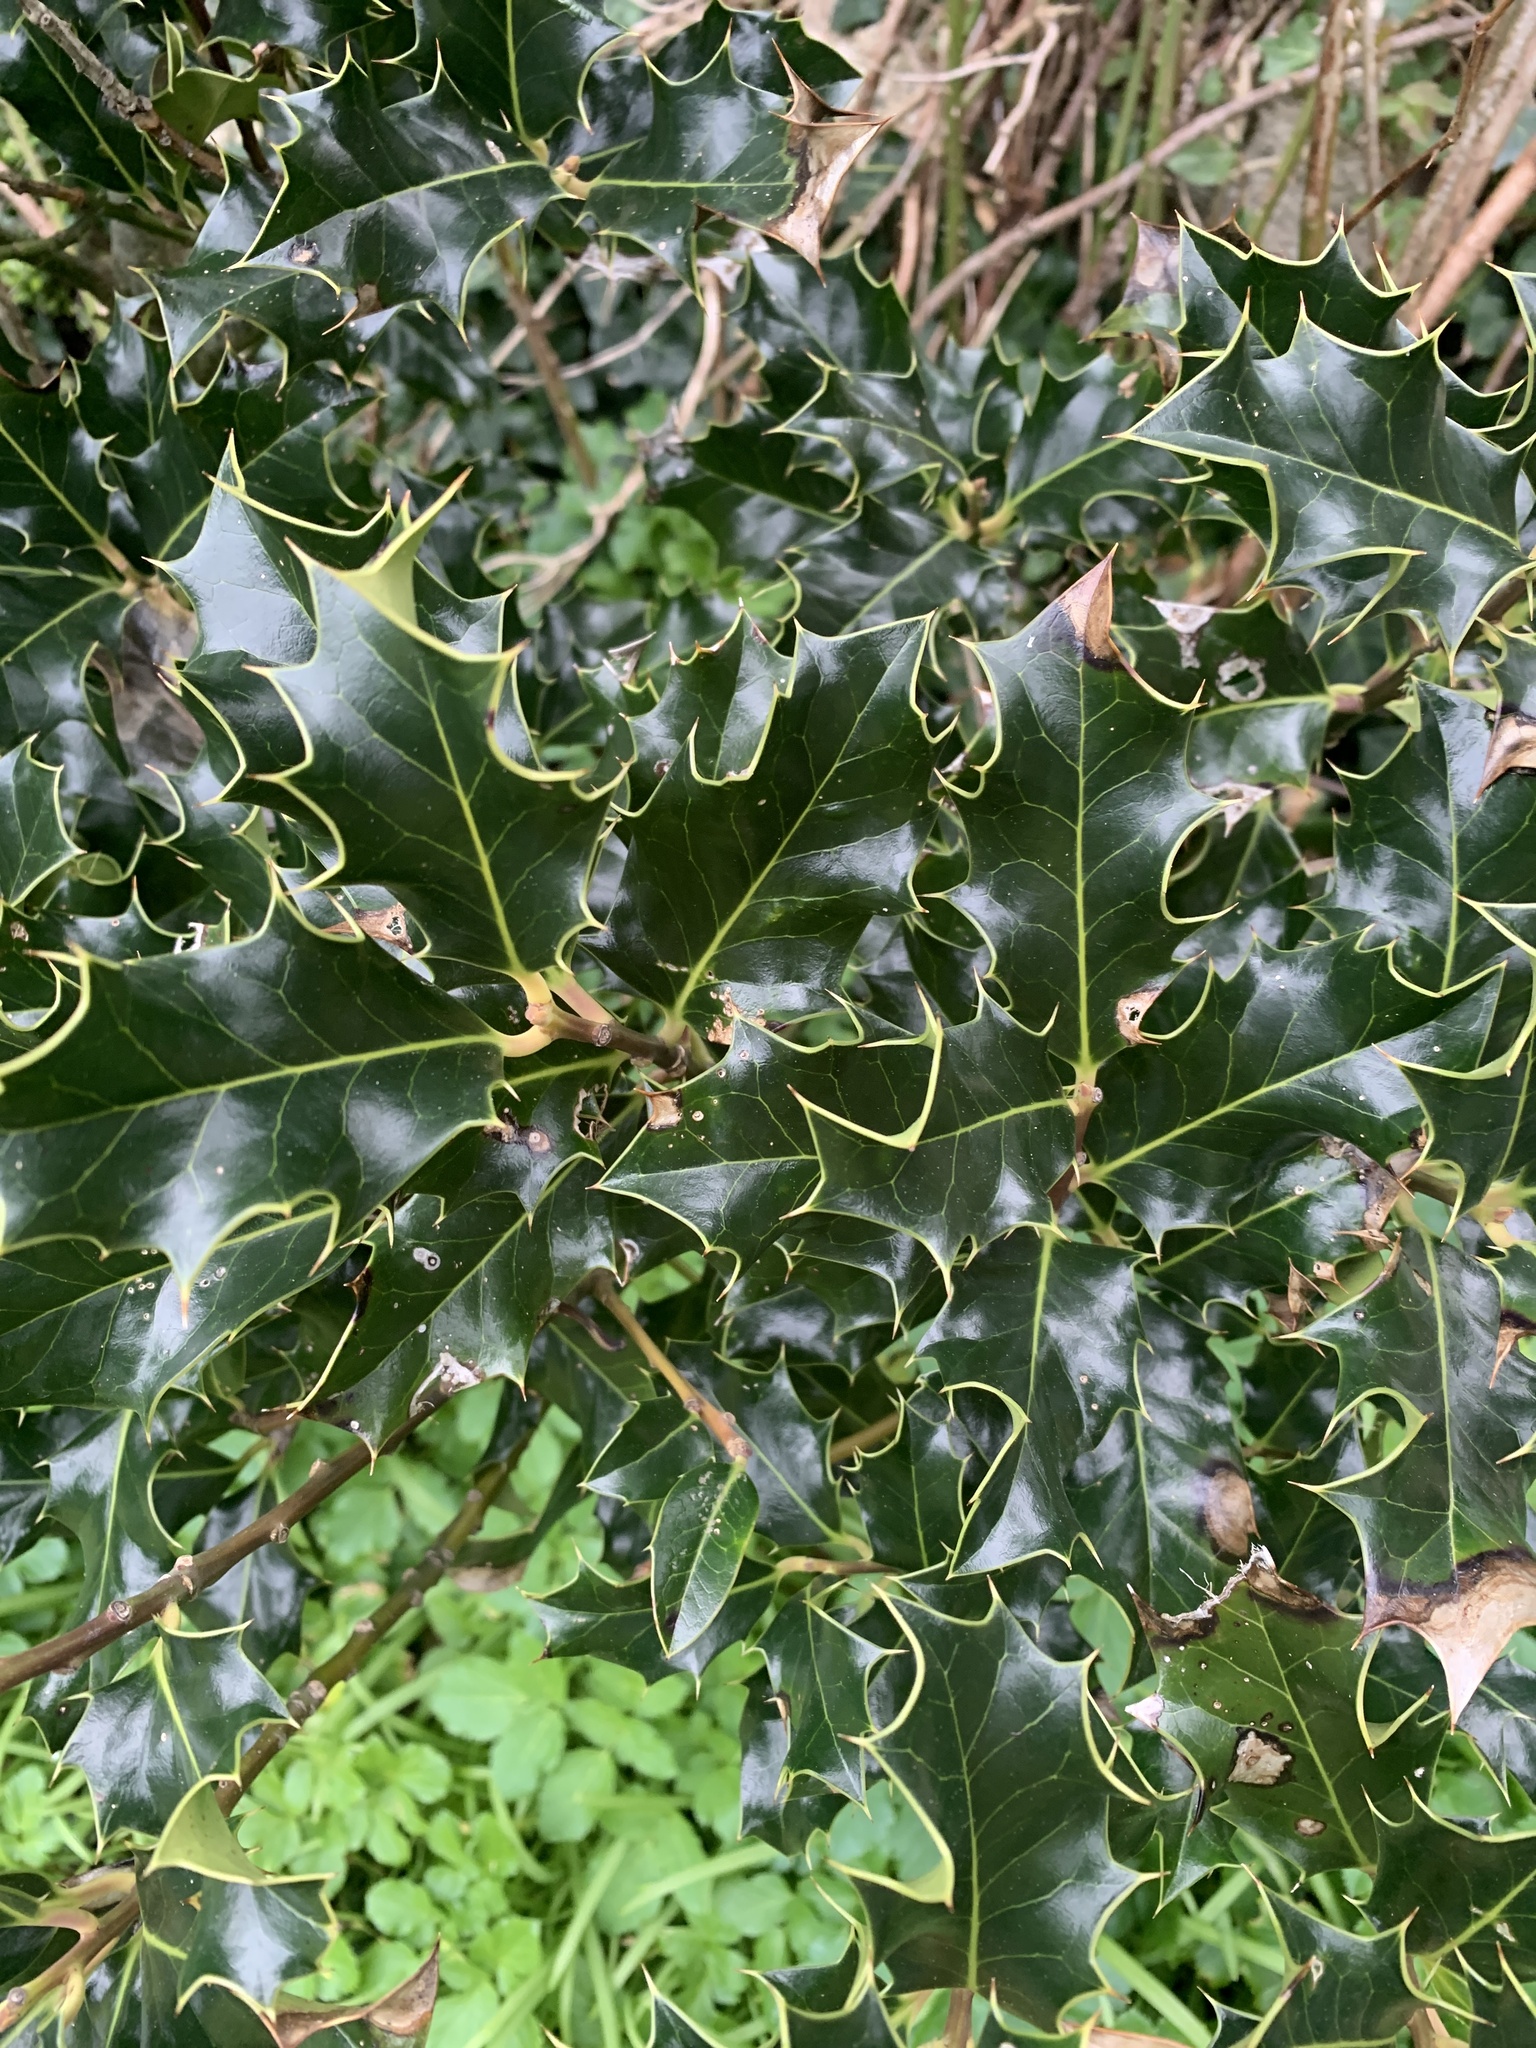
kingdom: Plantae
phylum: Tracheophyta
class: Magnoliopsida
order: Aquifoliales
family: Aquifoliaceae
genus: Ilex
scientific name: Ilex aquifolium
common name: English holly
